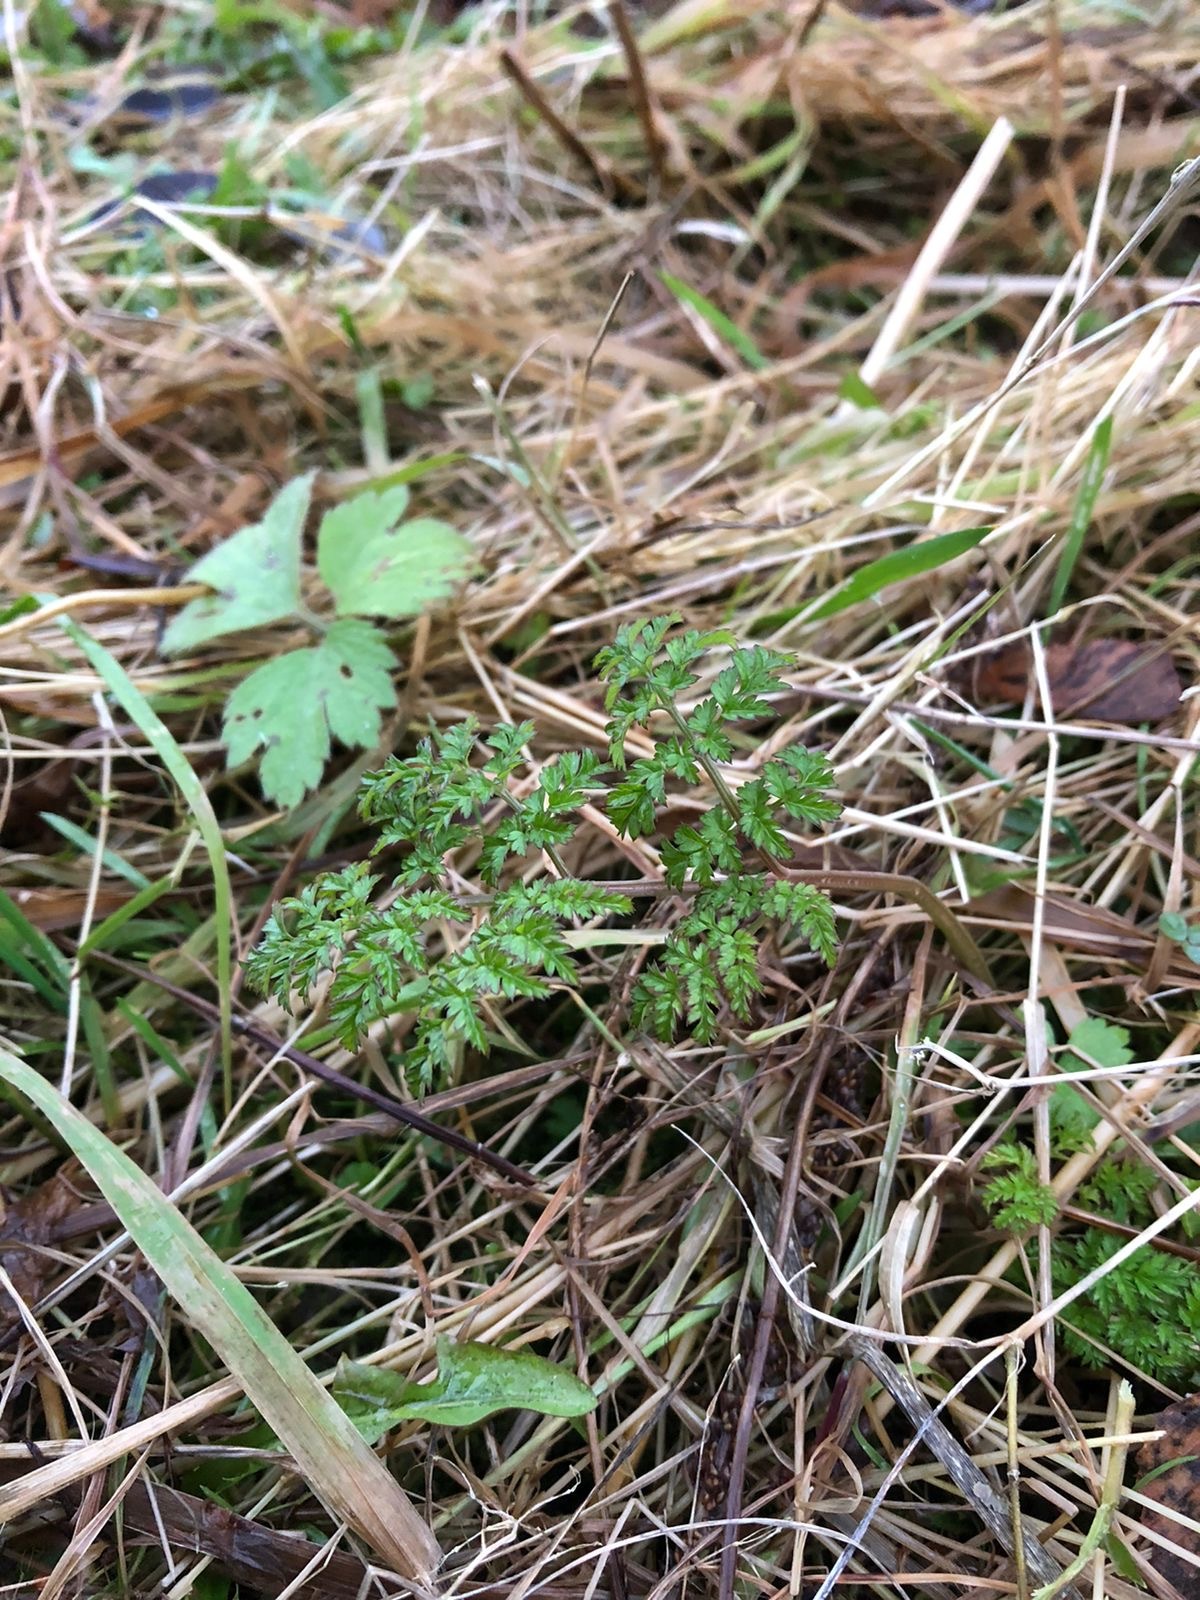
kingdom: Plantae
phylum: Tracheophyta
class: Magnoliopsida
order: Apiales
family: Apiaceae
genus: Anthriscus
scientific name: Anthriscus sylvestris
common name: Cow parsley
